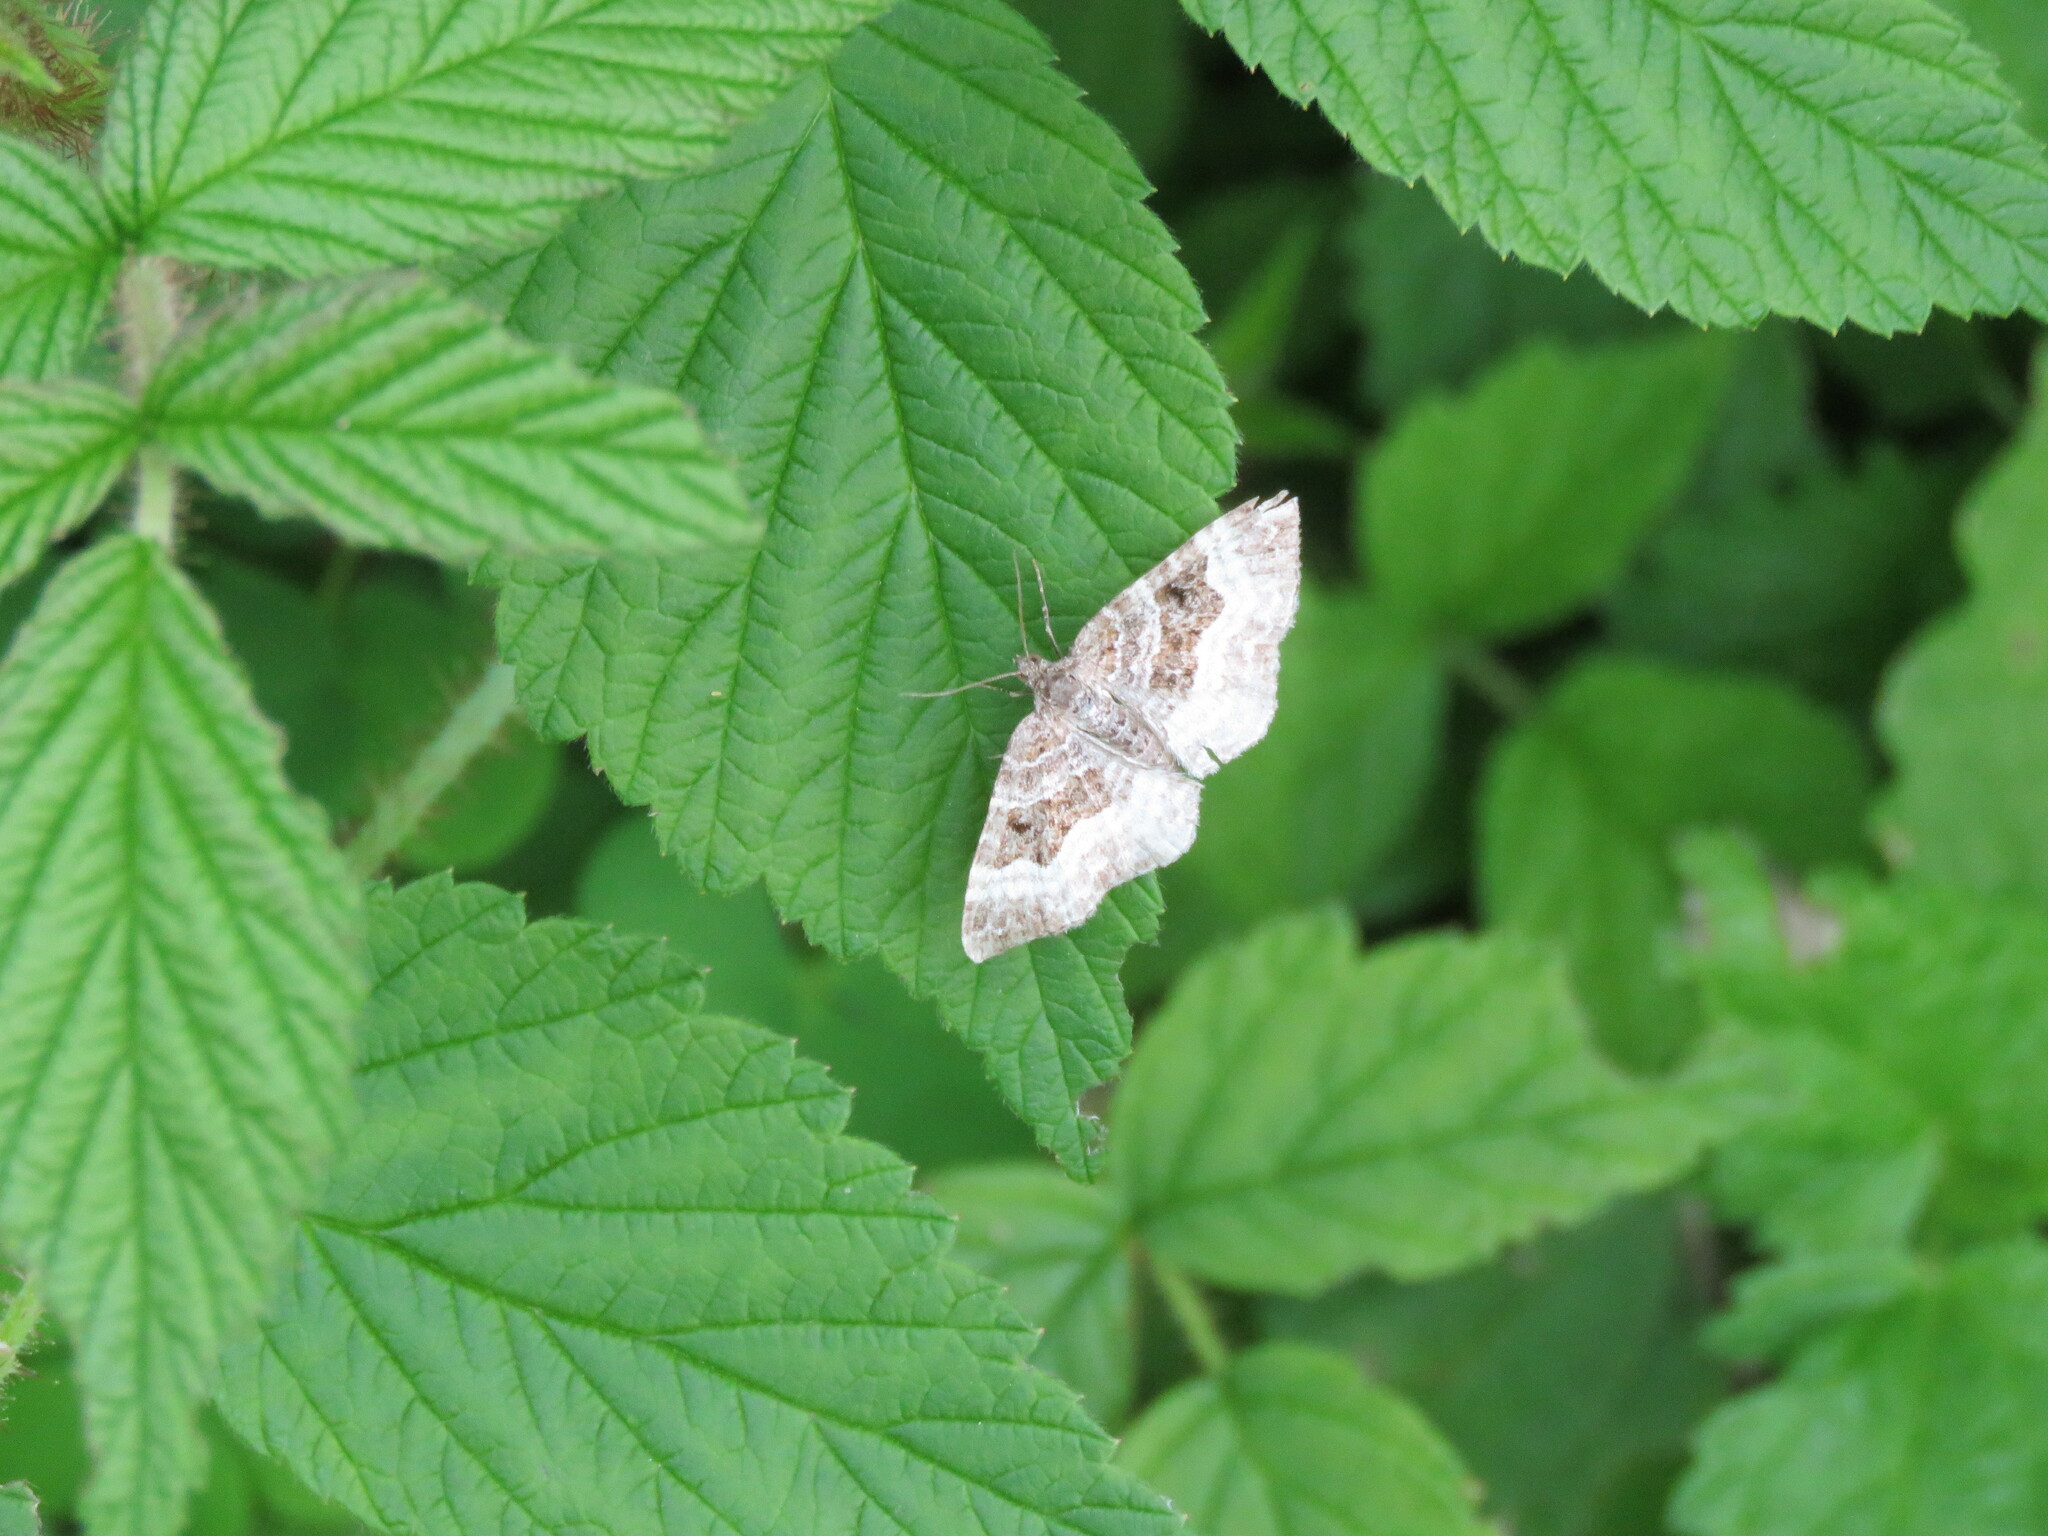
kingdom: Animalia
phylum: Arthropoda
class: Insecta
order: Lepidoptera
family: Geometridae
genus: Epirrhoe
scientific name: Epirrhoe alternata
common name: Common carpet
